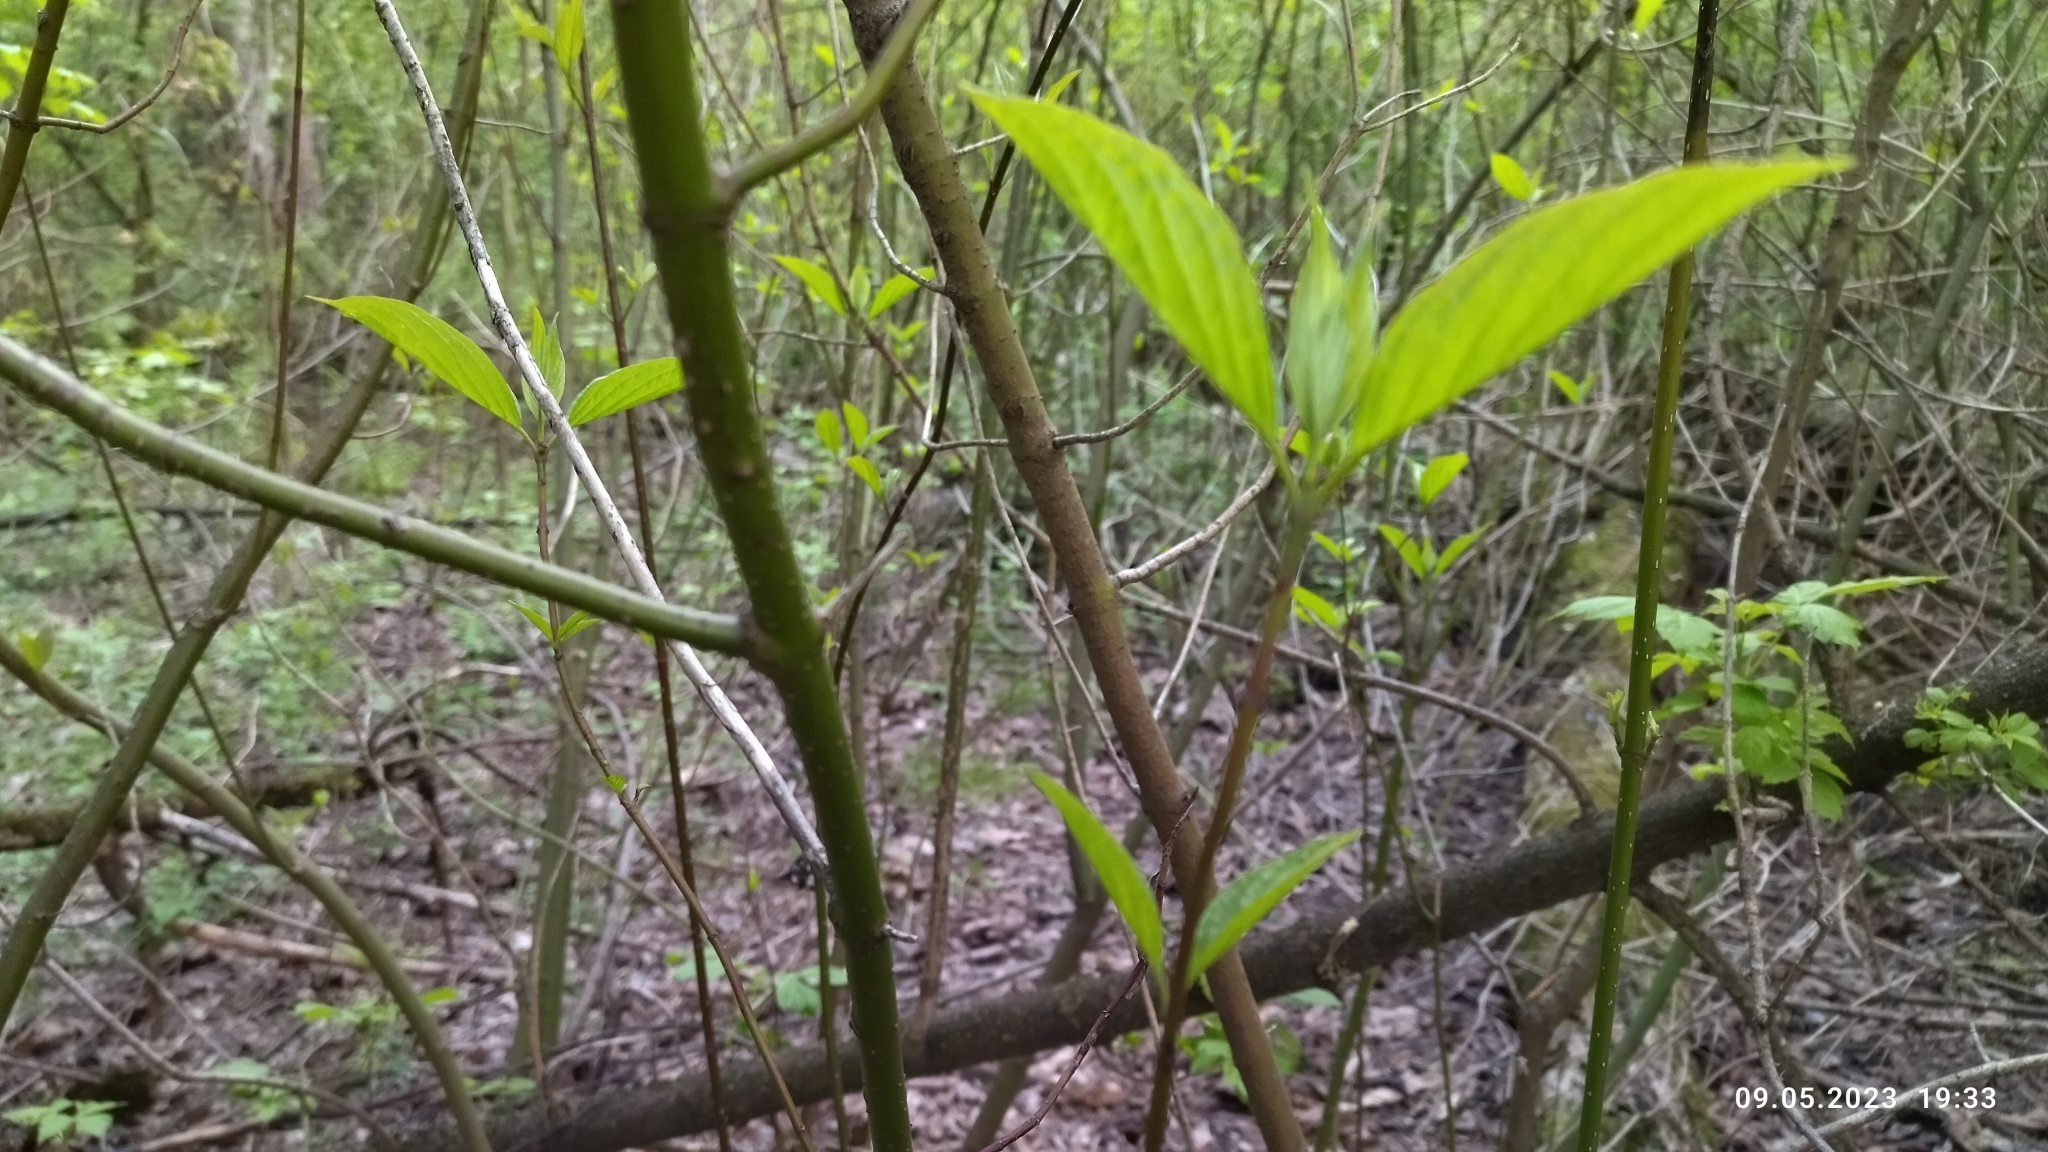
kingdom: Plantae
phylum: Tracheophyta
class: Magnoliopsida
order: Cornales
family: Cornaceae
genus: Cornus
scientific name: Cornus sericea
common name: Red-osier dogwood
